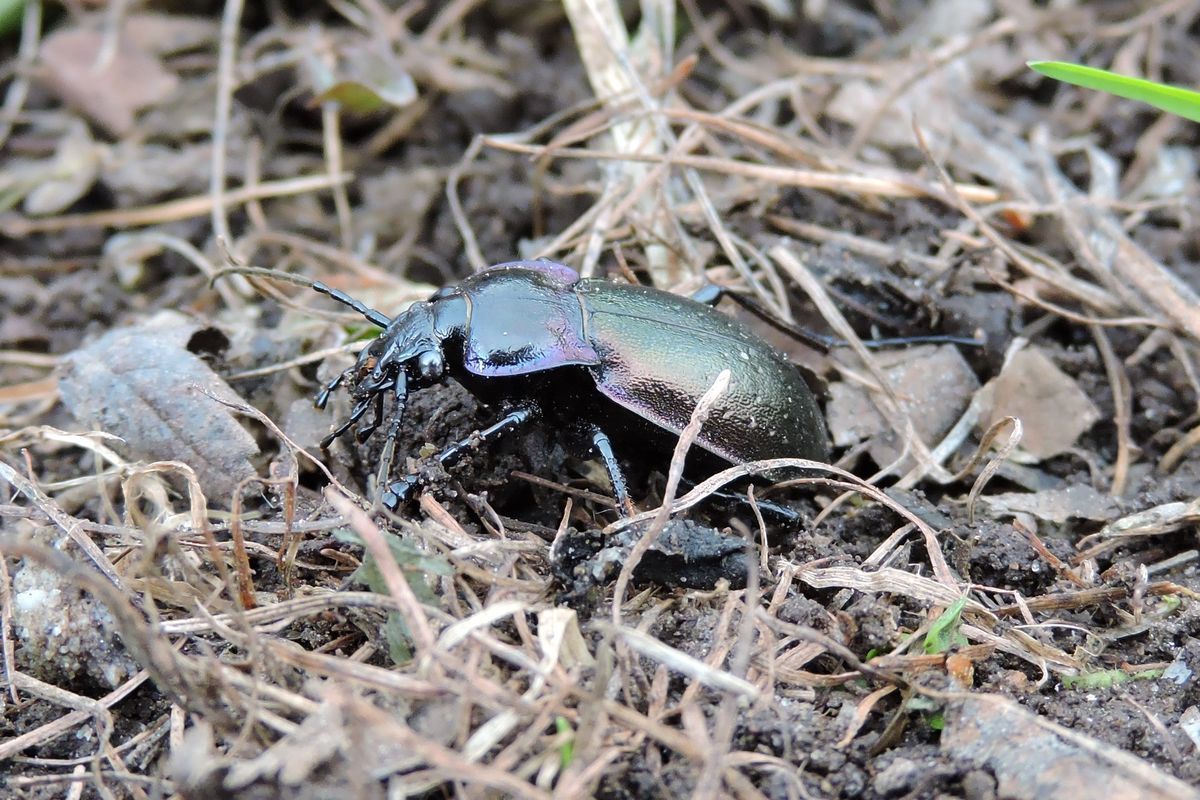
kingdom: Animalia
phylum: Arthropoda
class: Insecta
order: Coleoptera
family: Carabidae
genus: Carabus
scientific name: Carabus nemoralis
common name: European ground beetle
